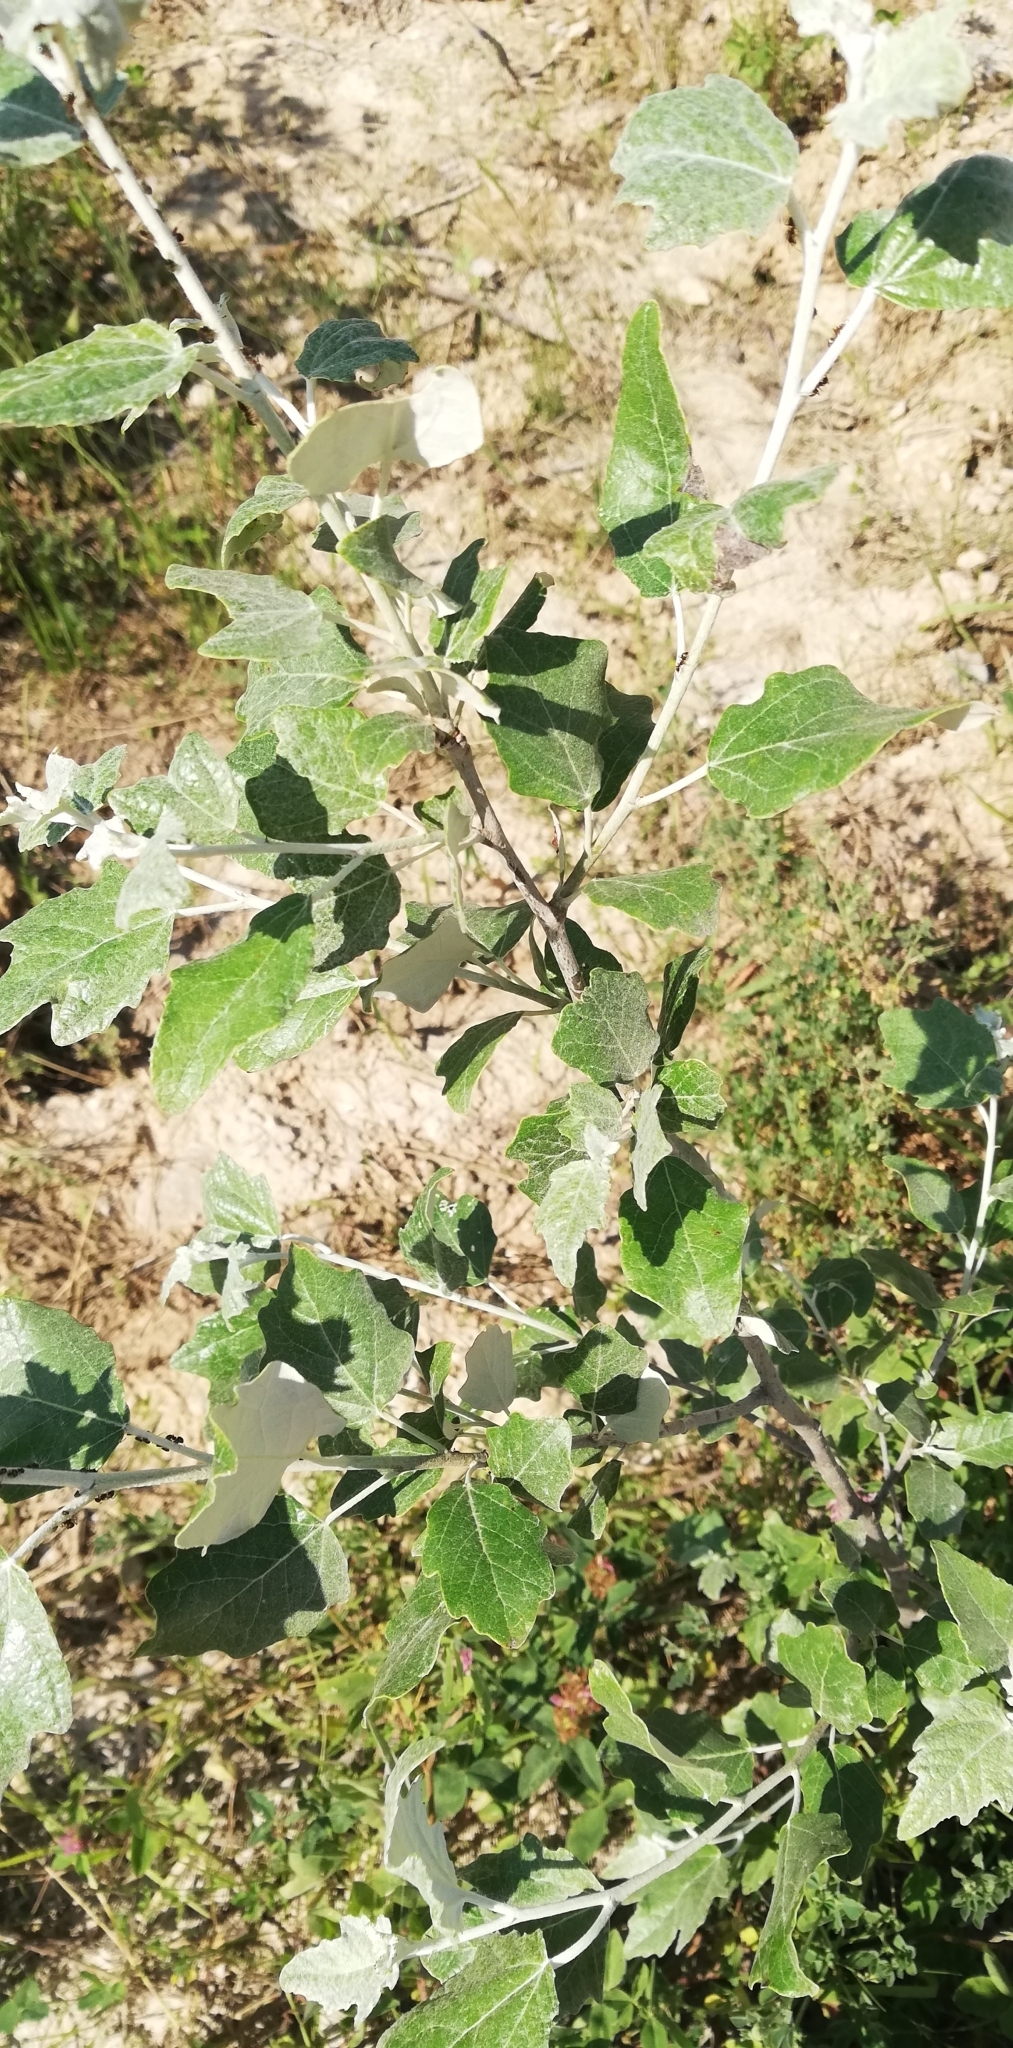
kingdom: Plantae
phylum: Tracheophyta
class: Magnoliopsida
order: Malpighiales
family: Salicaceae
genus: Populus
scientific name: Populus alba
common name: White poplar
